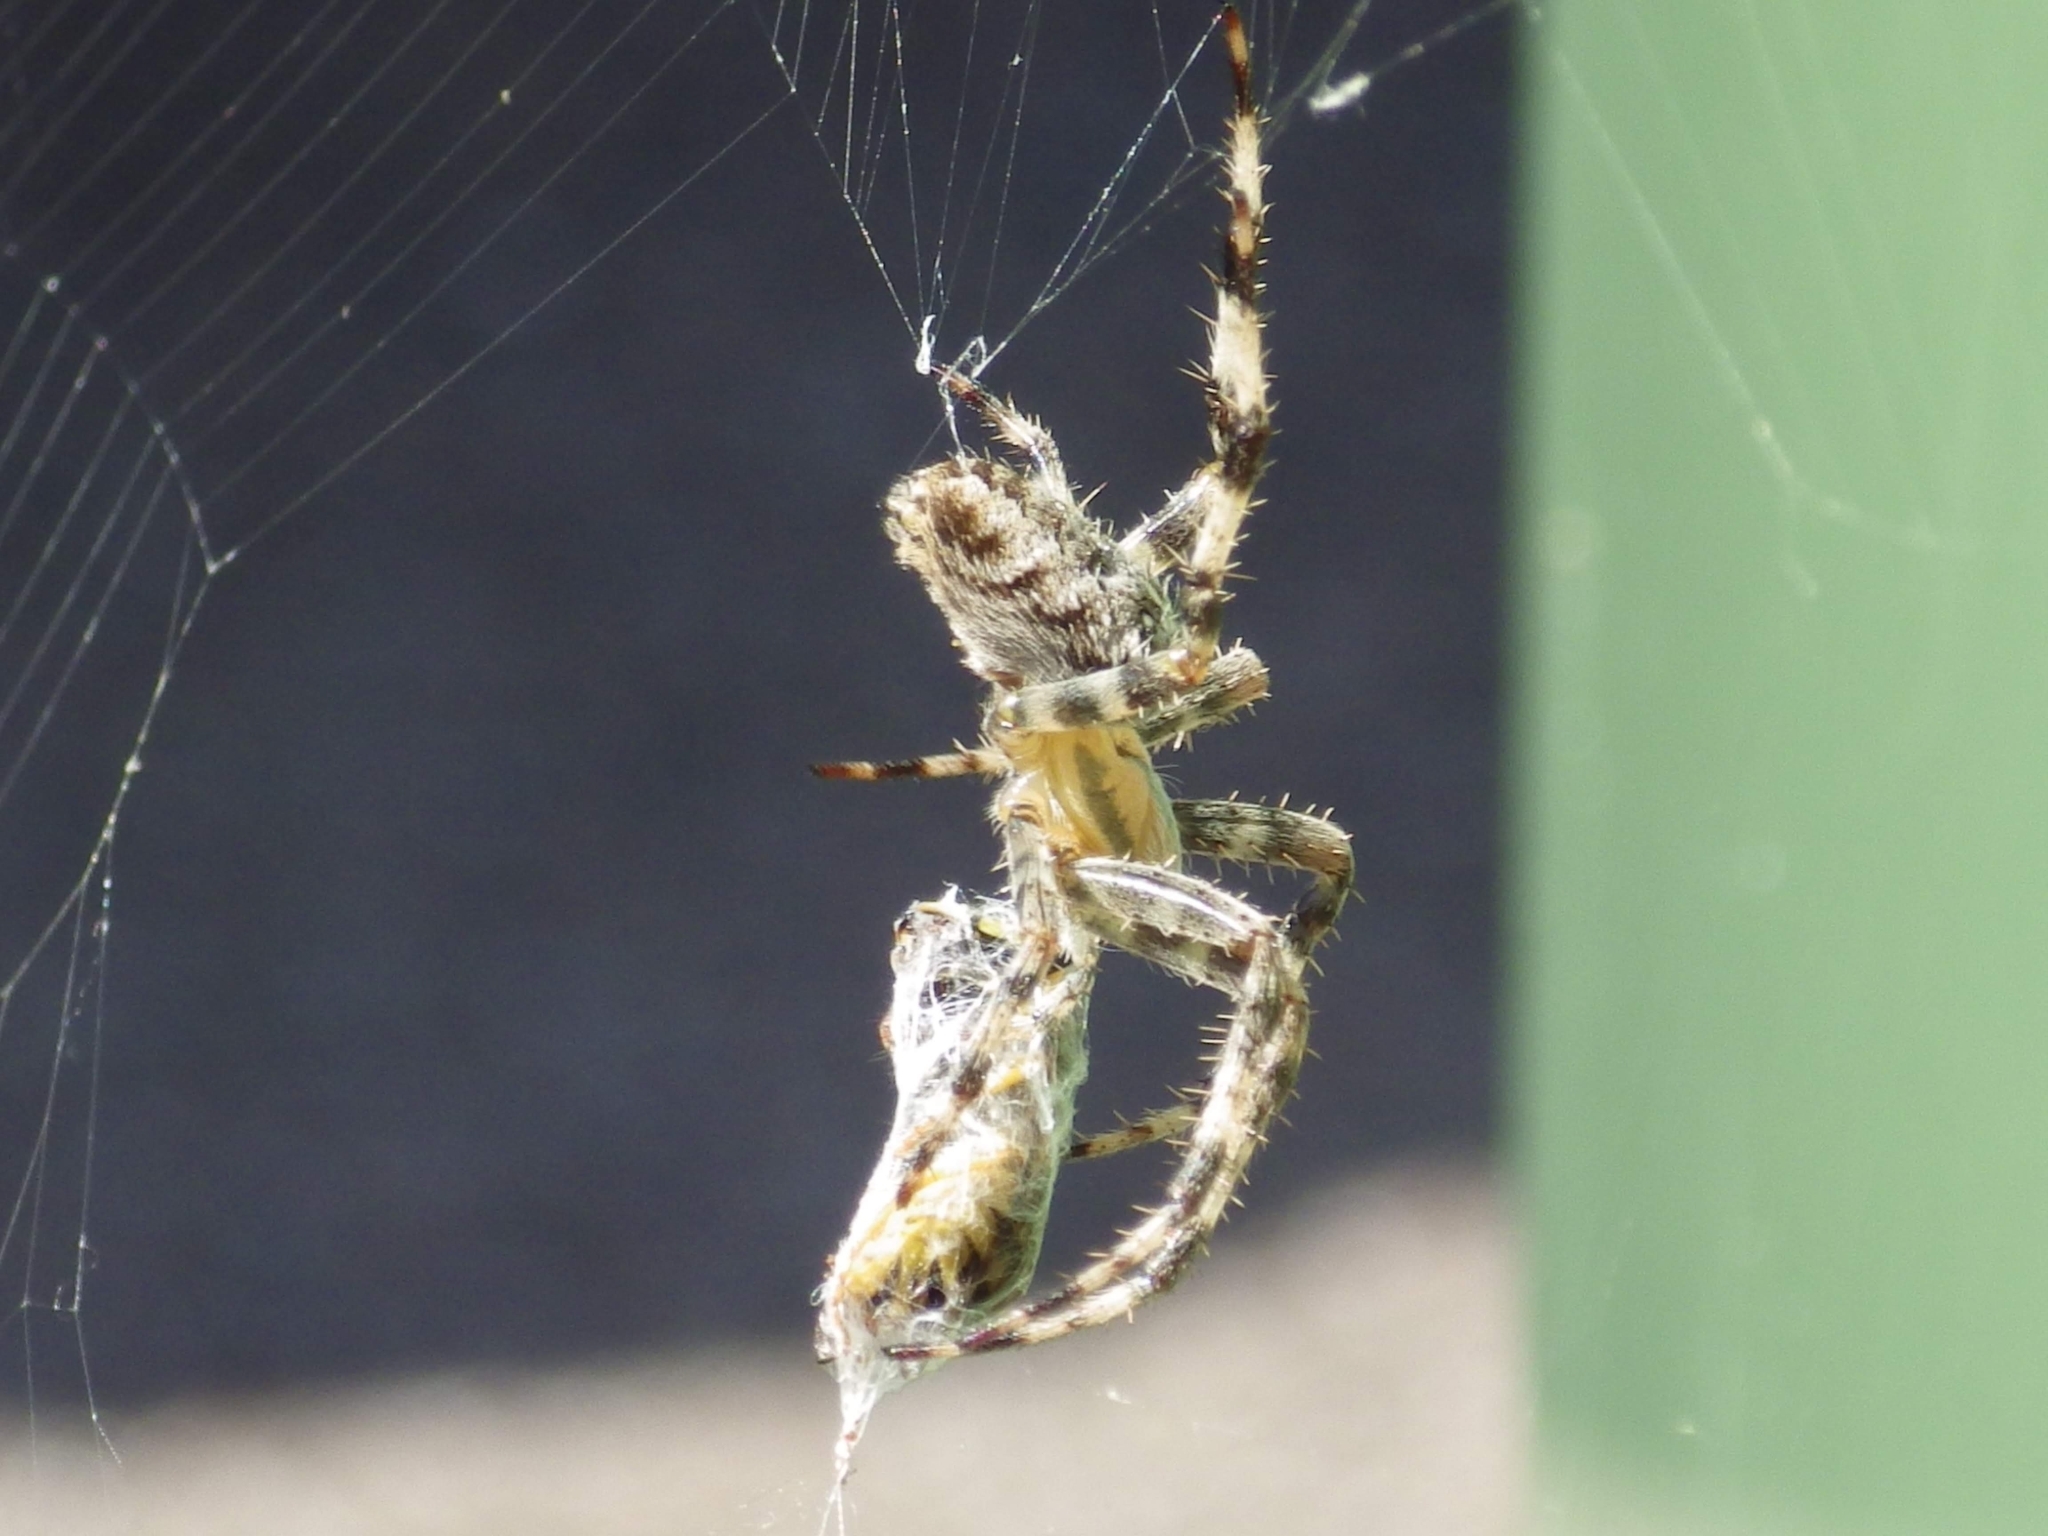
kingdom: Animalia
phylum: Arthropoda
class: Arachnida
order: Araneae
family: Araneidae
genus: Araneus
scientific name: Araneus diadematus
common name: Cross orbweaver
